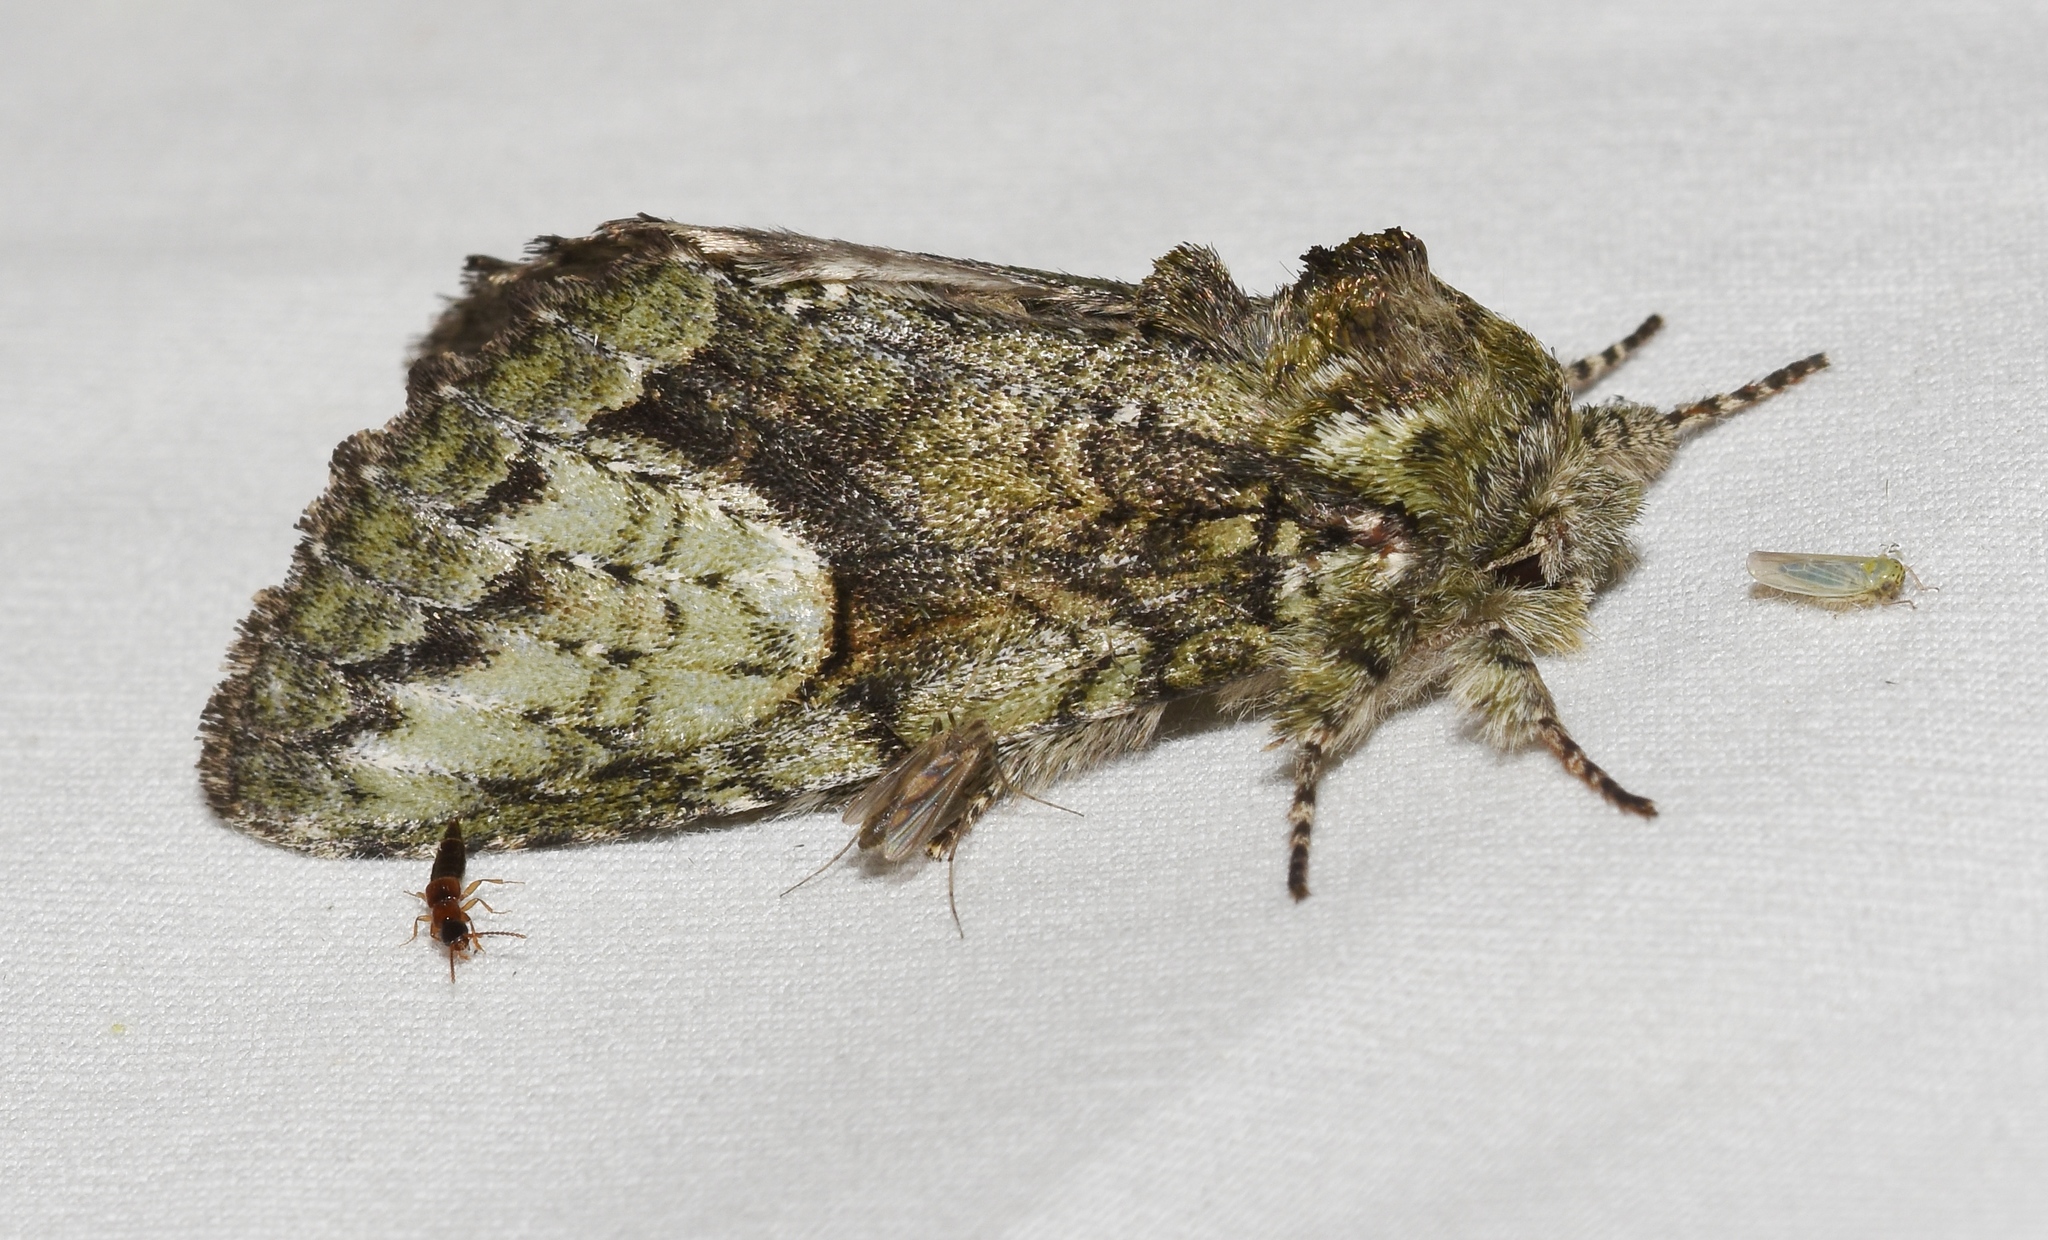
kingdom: Animalia
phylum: Arthropoda
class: Insecta
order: Lepidoptera
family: Notodontidae
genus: Heterocampa
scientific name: Heterocampa
